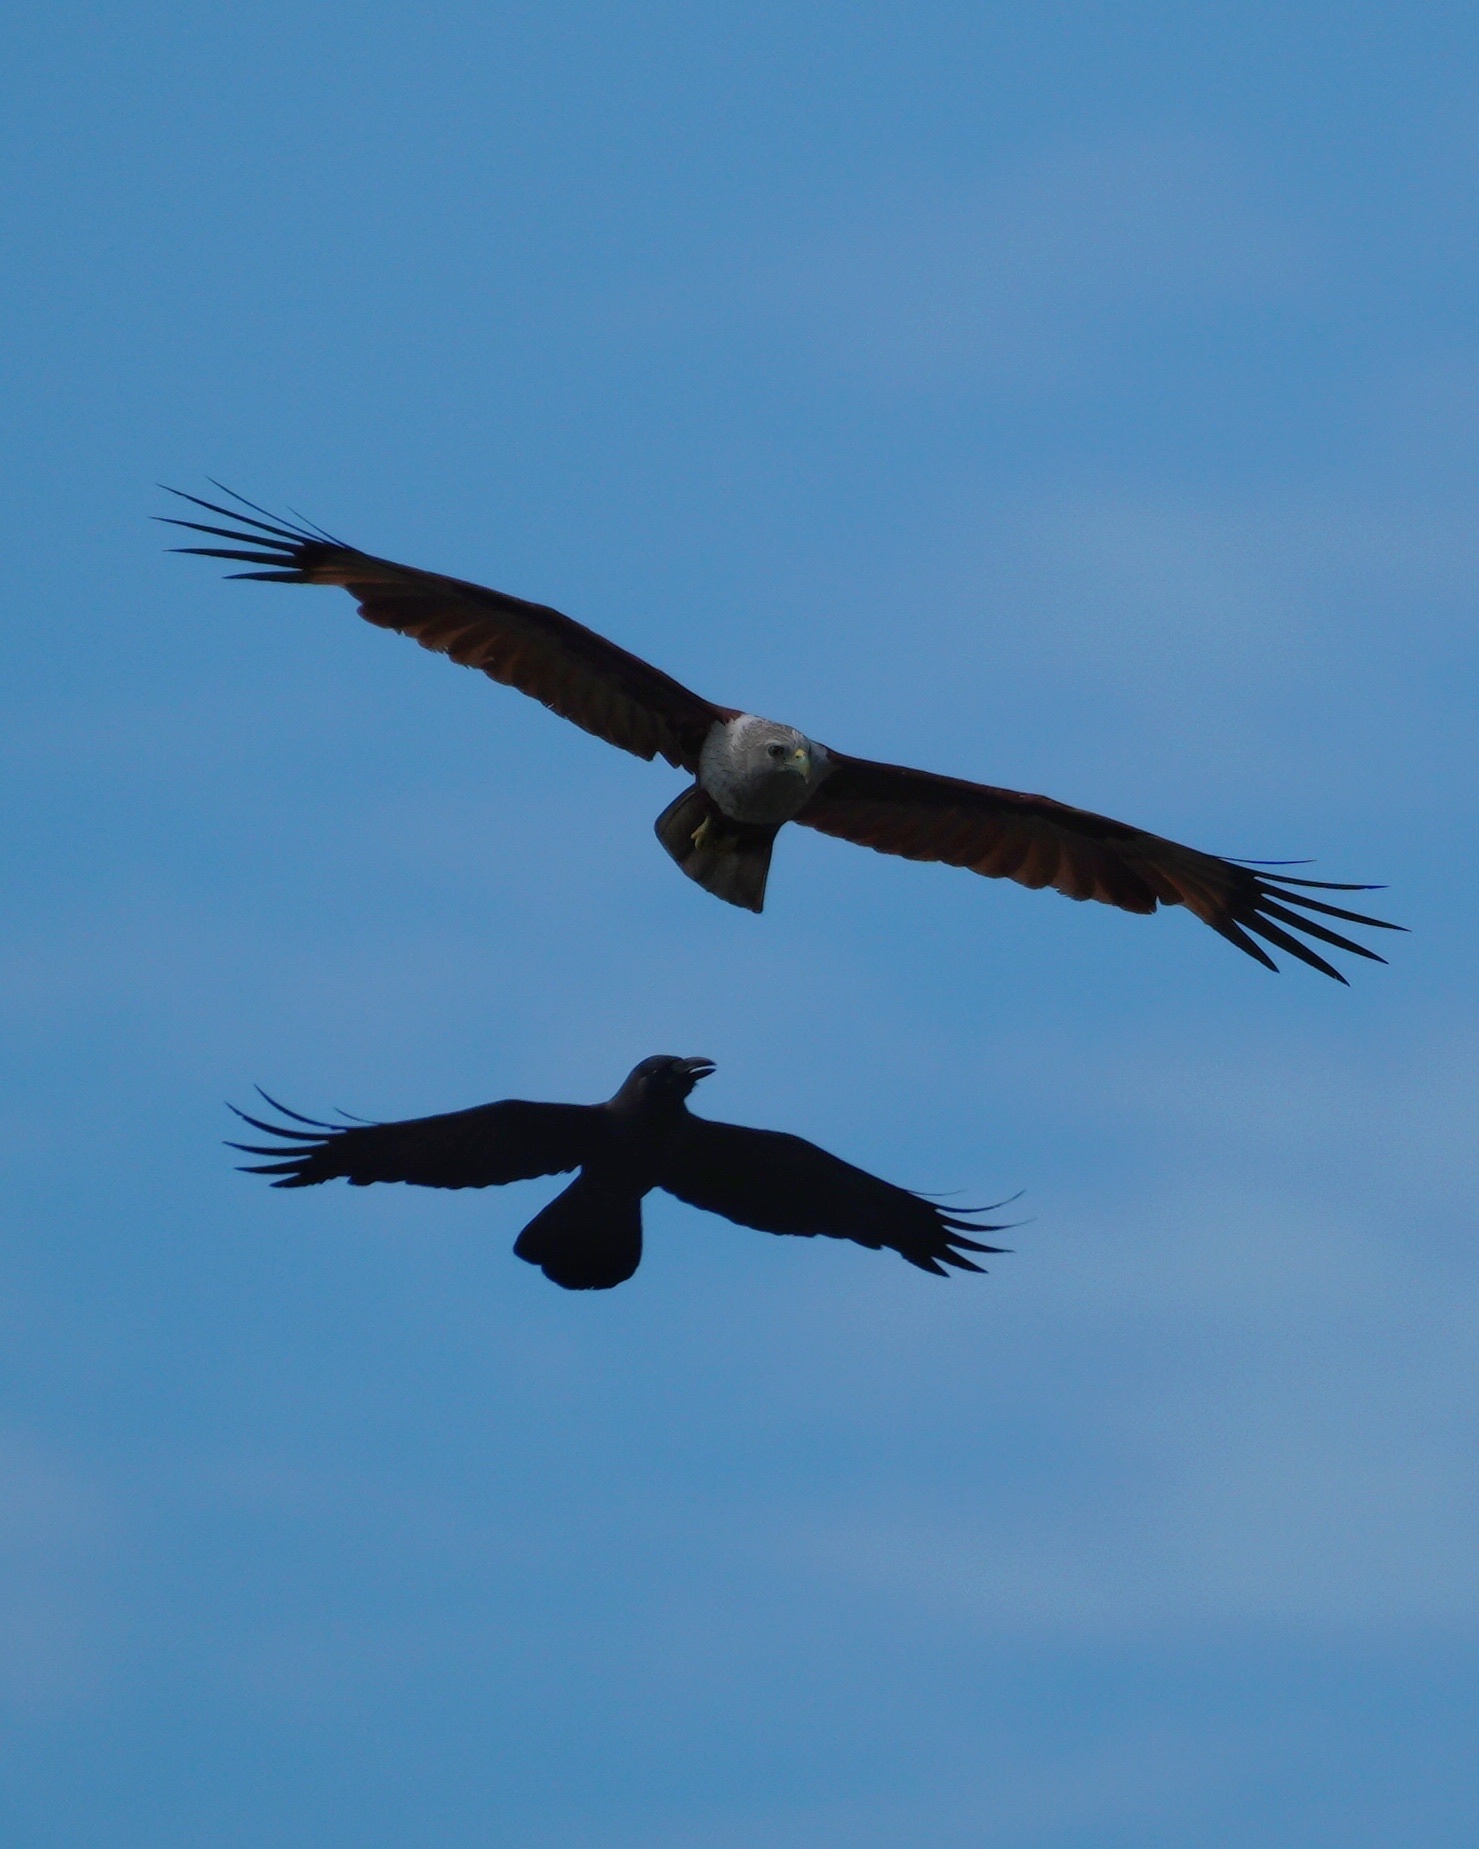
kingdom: Animalia
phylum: Chordata
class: Aves
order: Accipitriformes
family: Accipitridae
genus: Haliastur
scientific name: Haliastur indus
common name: Brahminy kite
